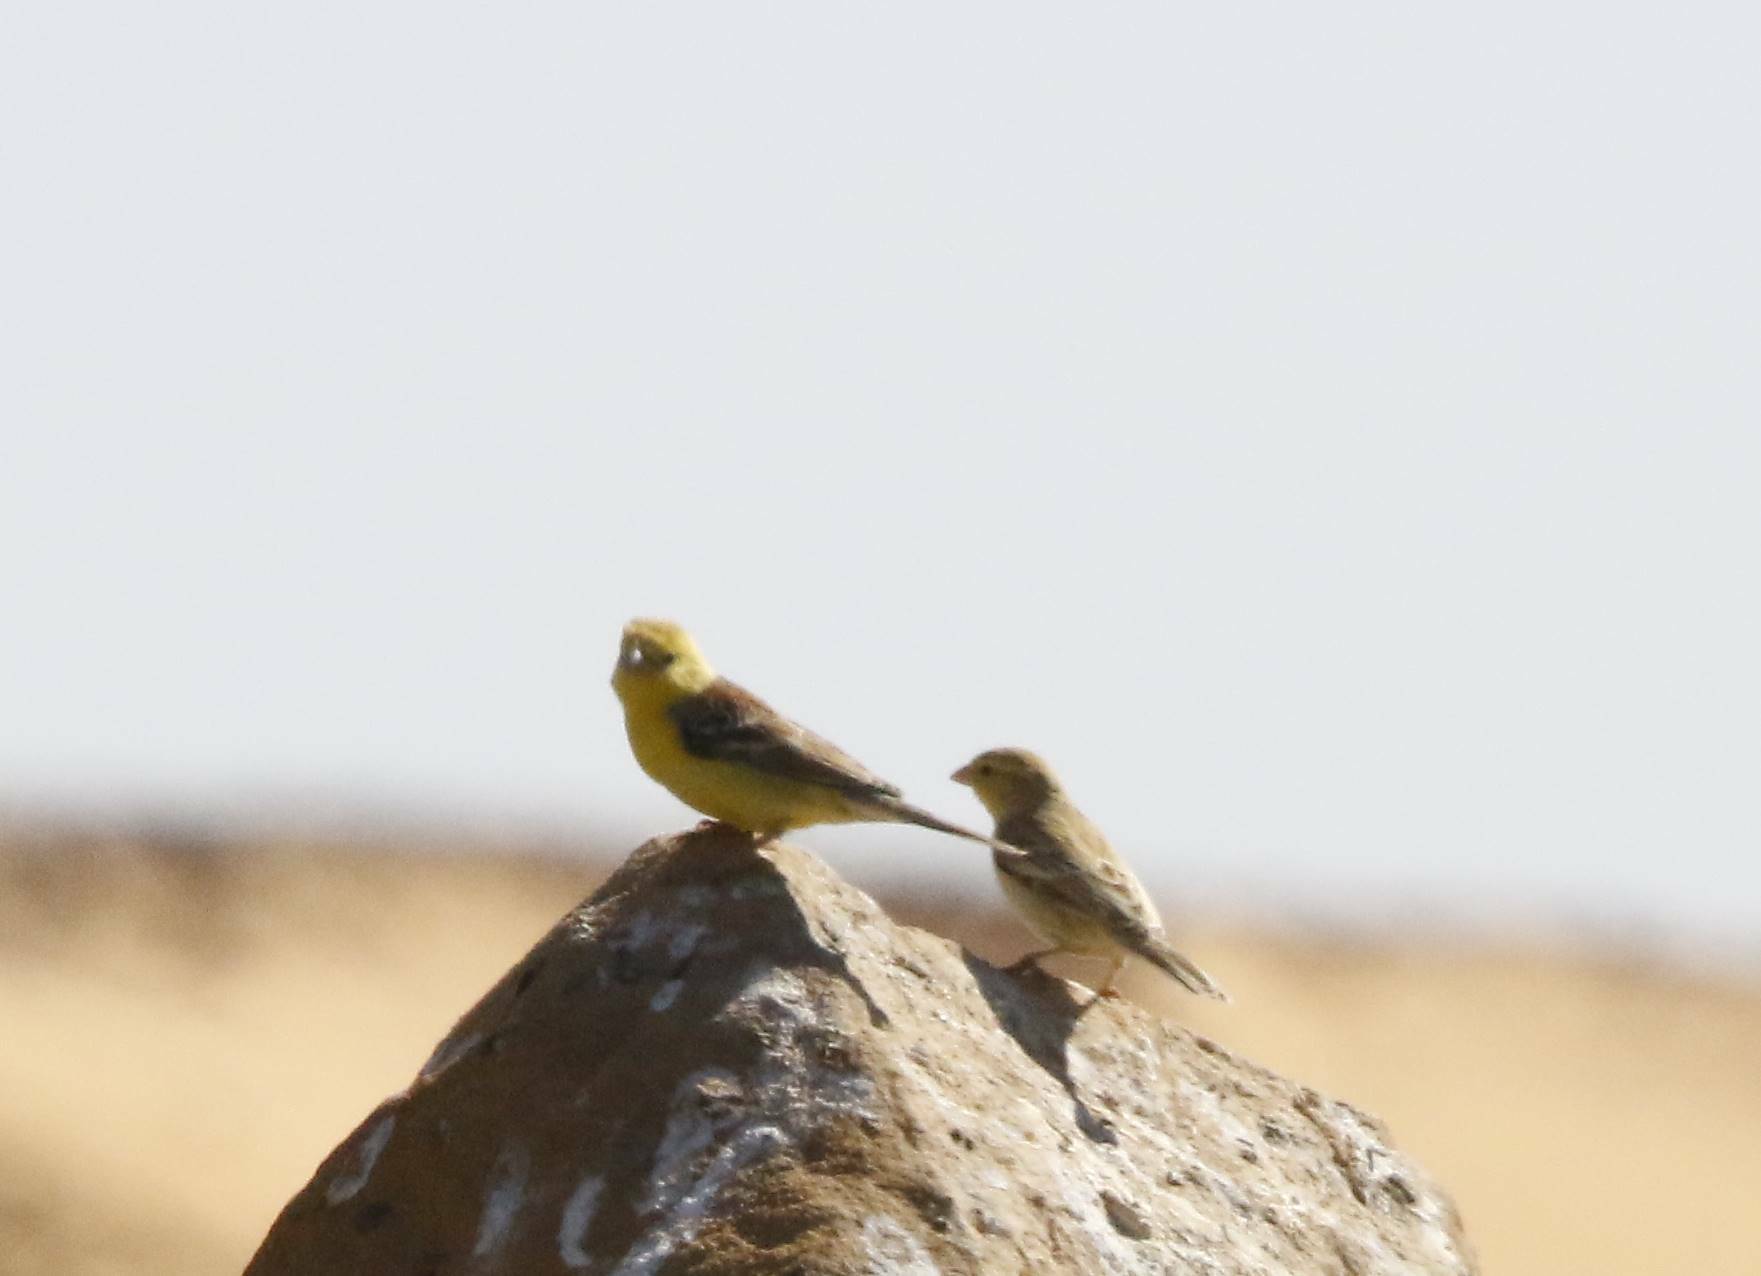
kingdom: Animalia
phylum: Chordata
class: Aves
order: Passeriformes
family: Passeridae
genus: Passer
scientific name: Passer luteus
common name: Sudan golden sparrow
